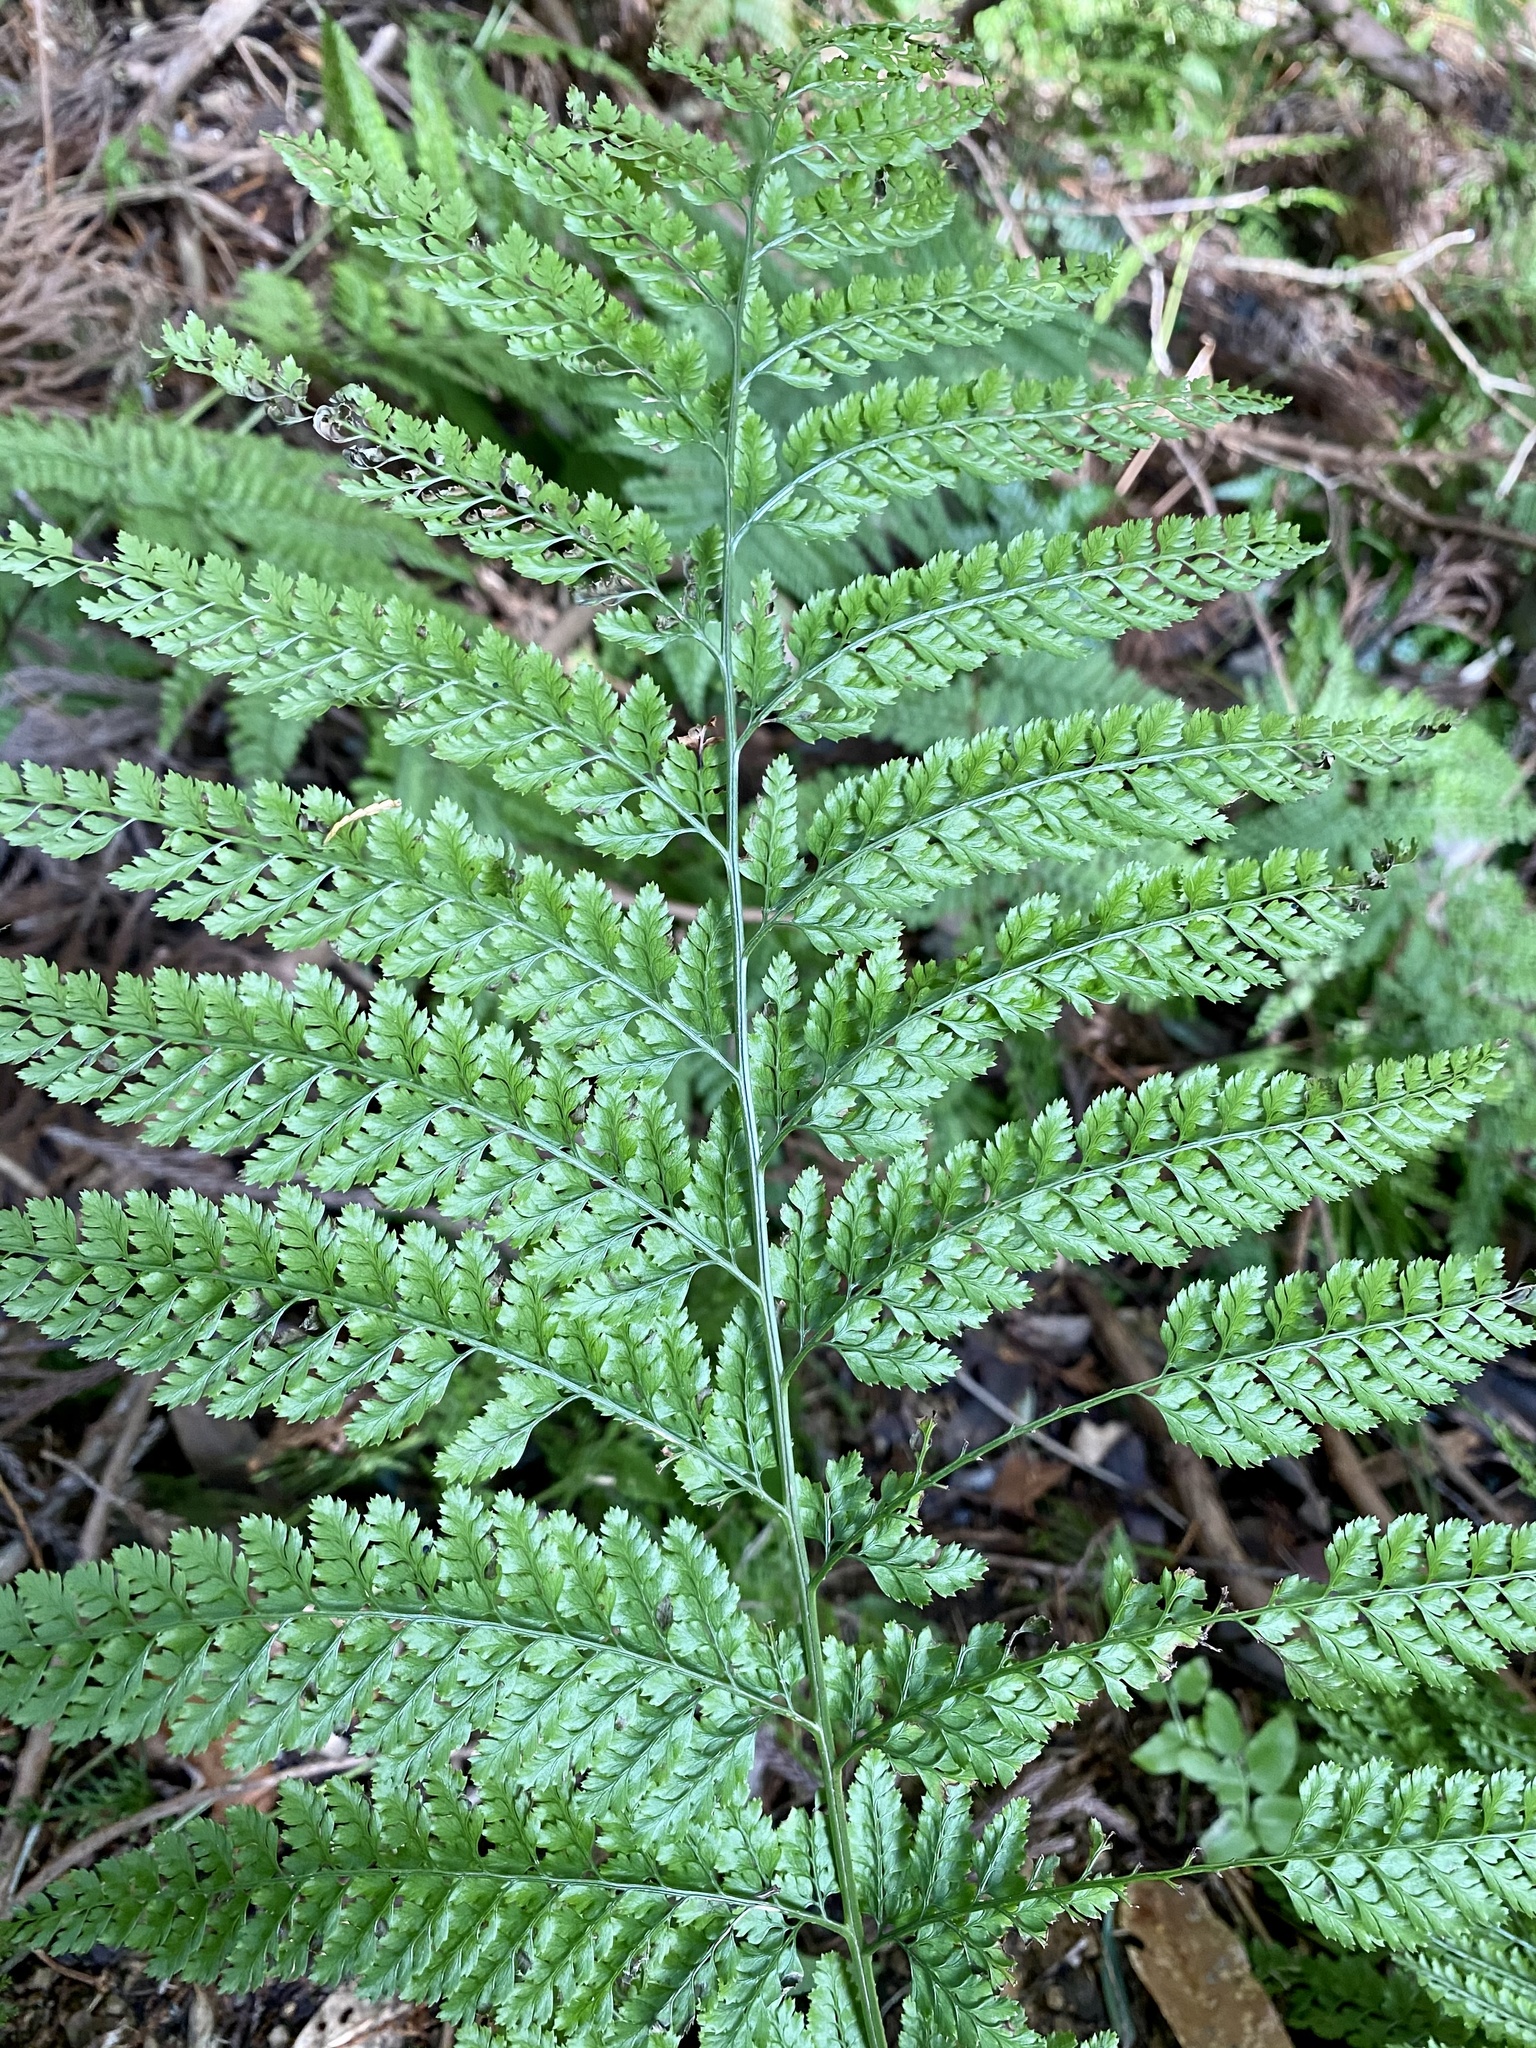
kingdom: Plantae
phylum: Tracheophyta
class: Polypodiopsida
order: Polypodiales
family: Dryopteridaceae
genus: Arachniodes
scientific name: Arachniodes standishii
